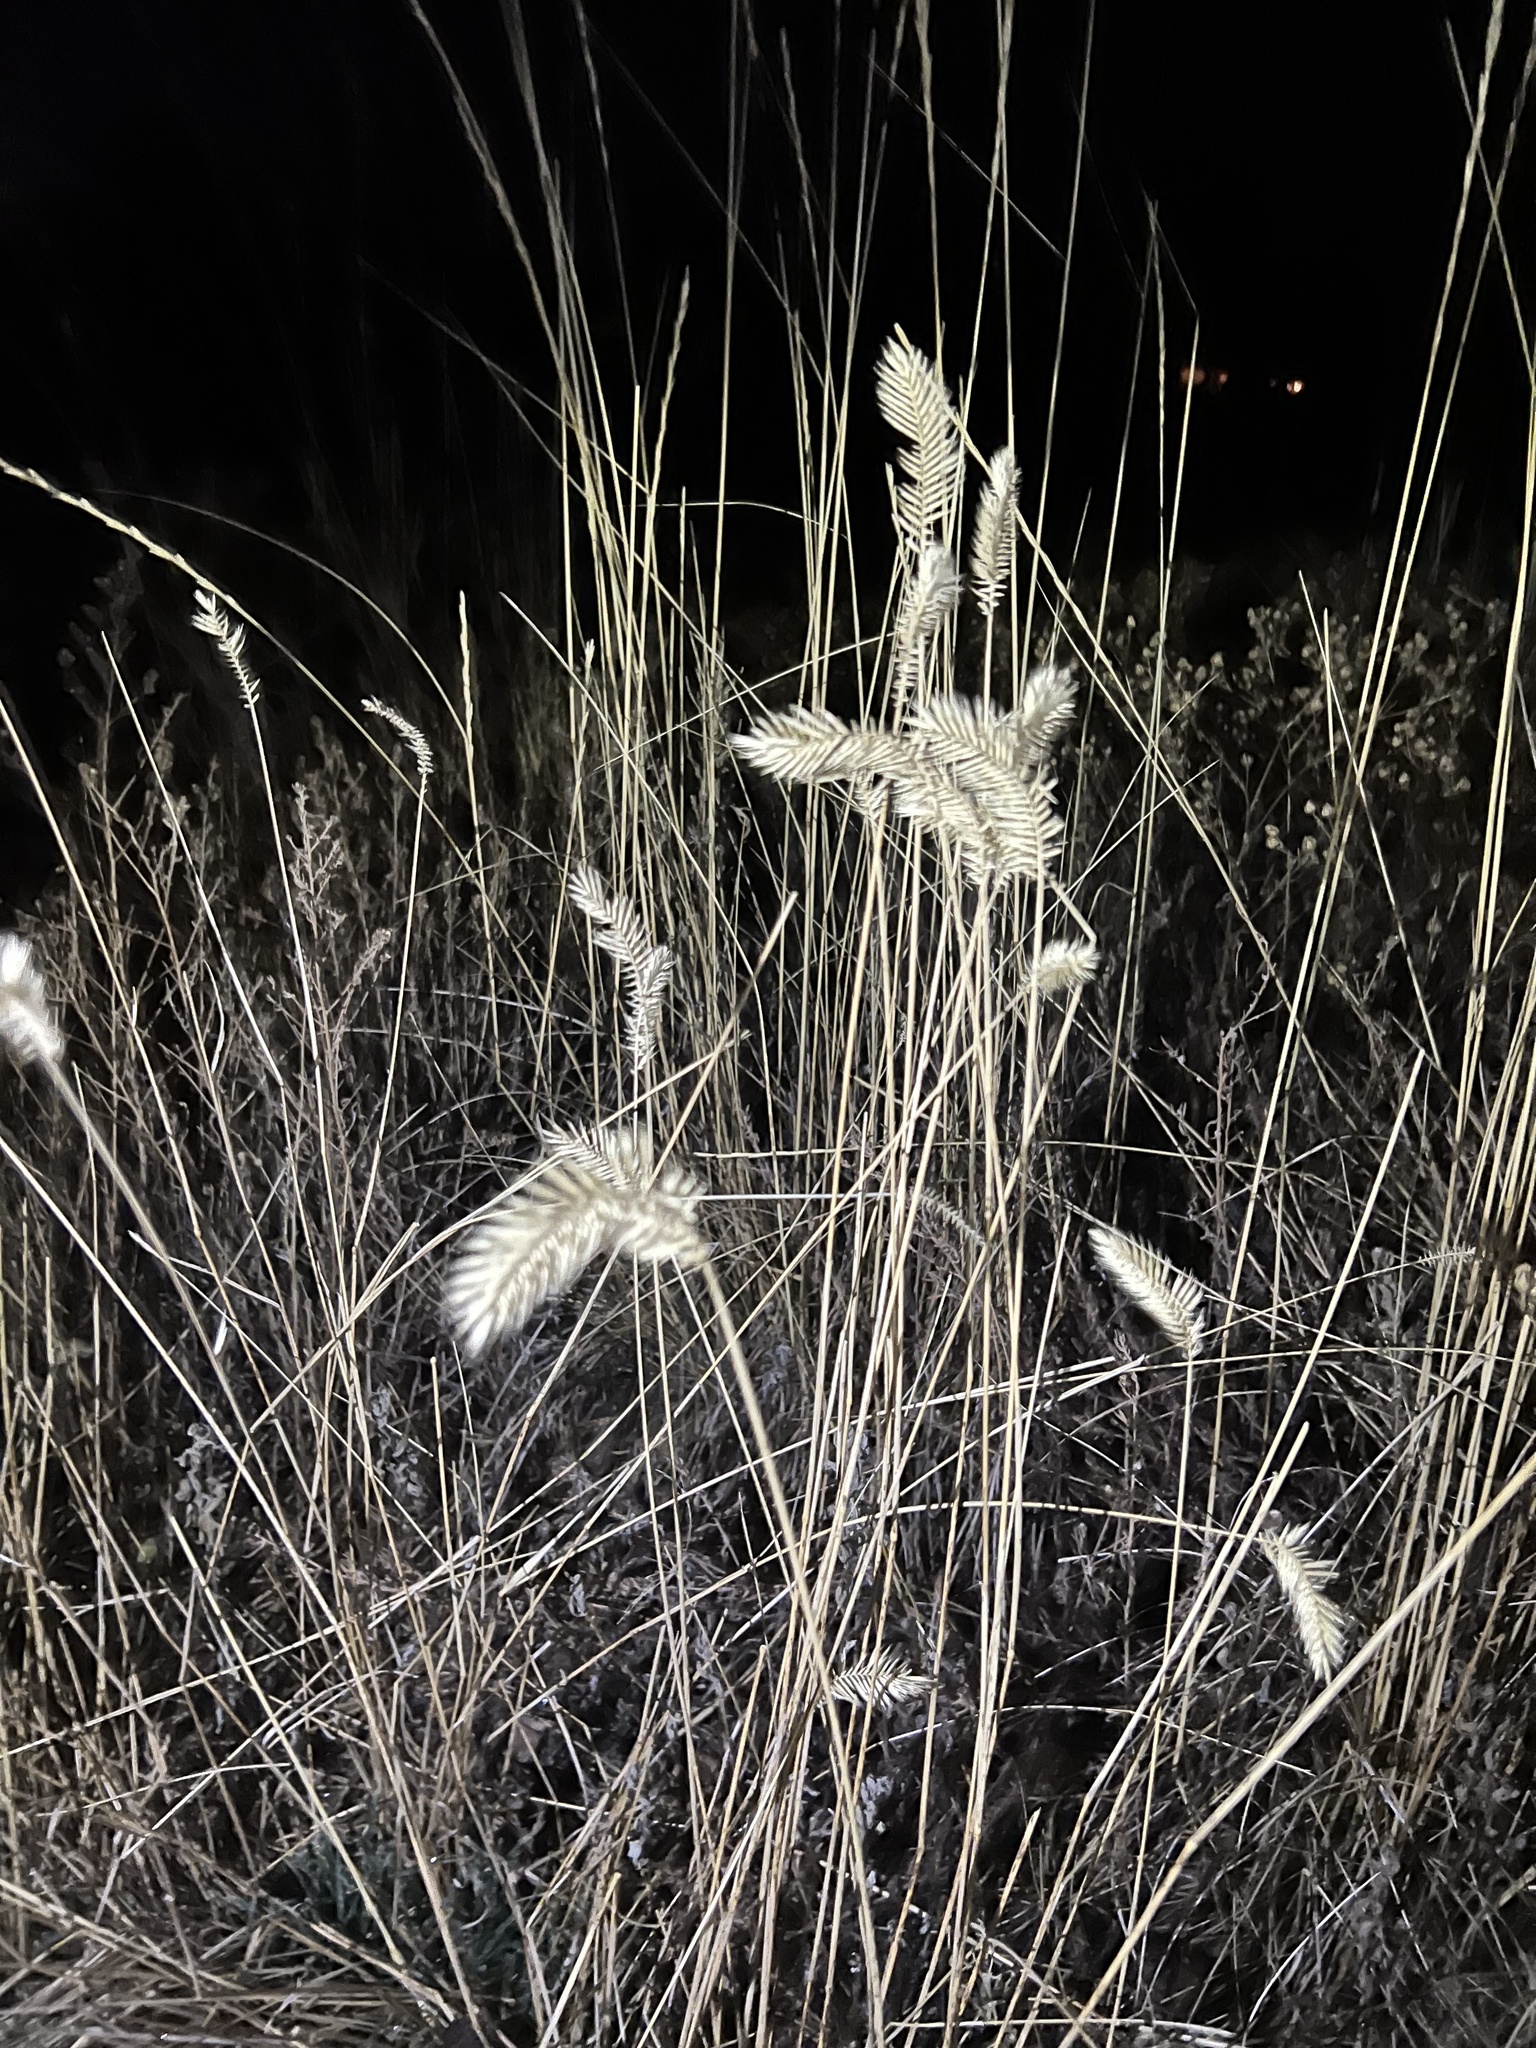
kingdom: Plantae
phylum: Tracheophyta
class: Liliopsida
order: Poales
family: Poaceae
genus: Agropyron
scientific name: Agropyron cristatum
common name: Crested wheatgrass
